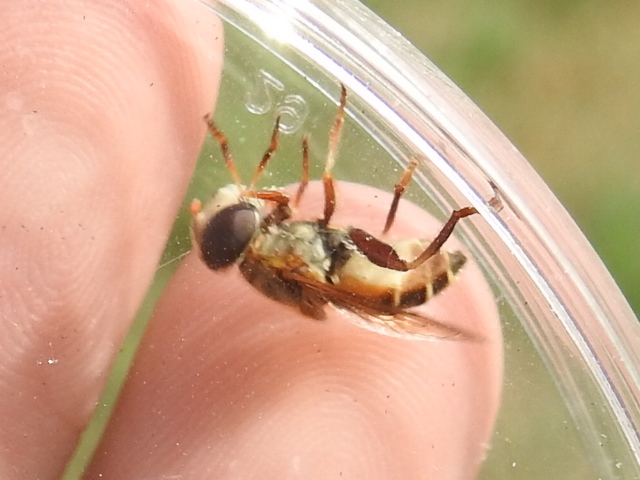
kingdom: Animalia
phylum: Arthropoda
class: Insecta
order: Diptera
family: Syrphidae
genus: Palpada
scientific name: Palpada vinetorum
